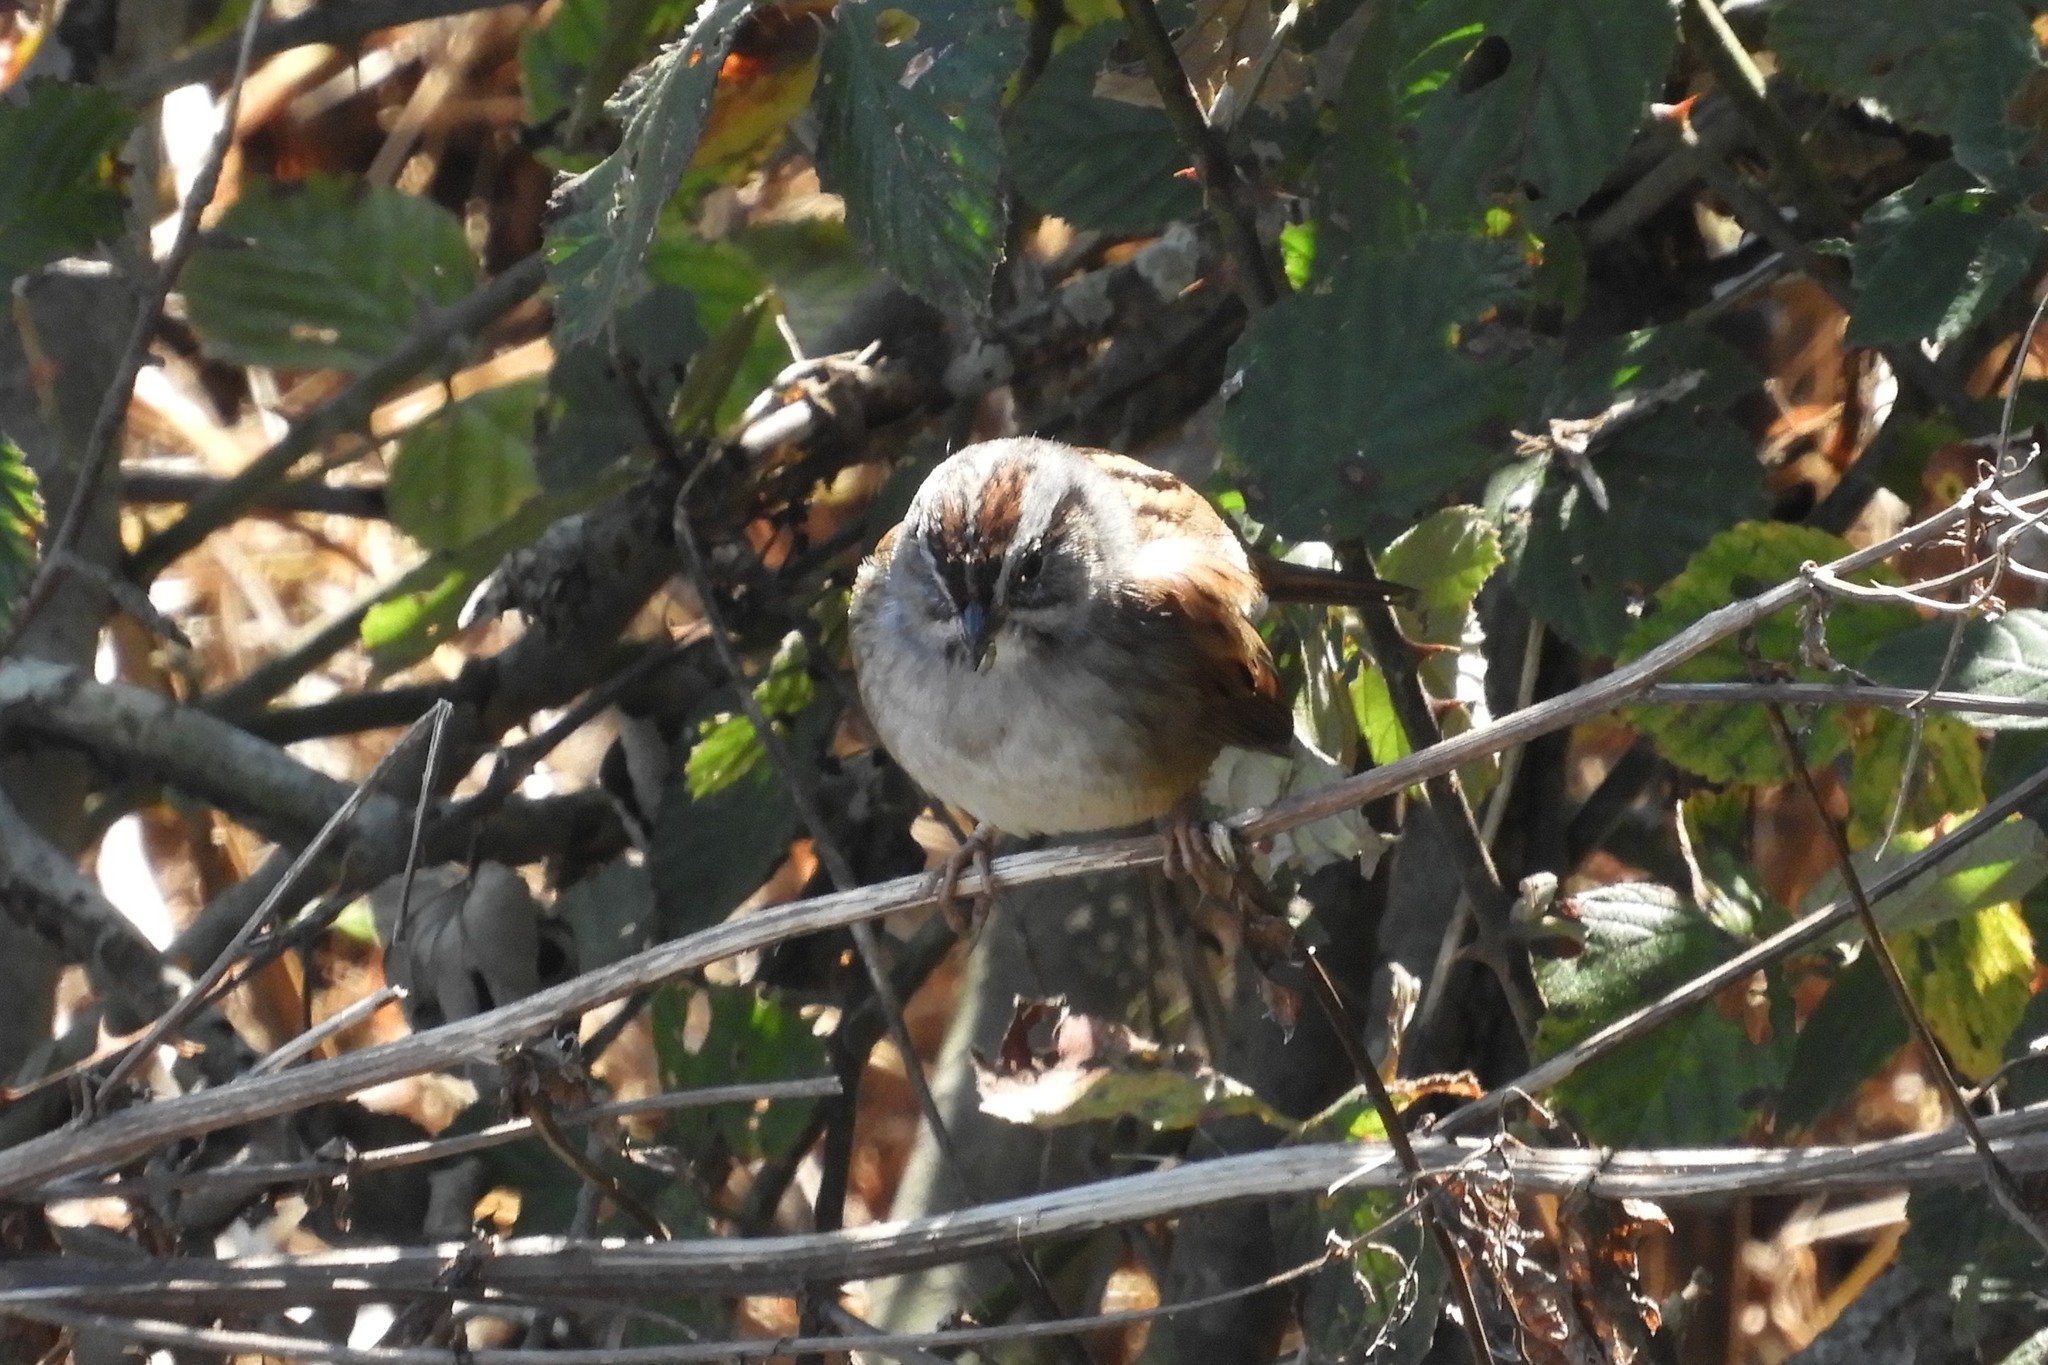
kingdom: Animalia
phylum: Chordata
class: Aves
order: Passeriformes
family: Passerellidae
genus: Zonotrichia
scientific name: Zonotrichia albicollis
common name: White-throated sparrow
